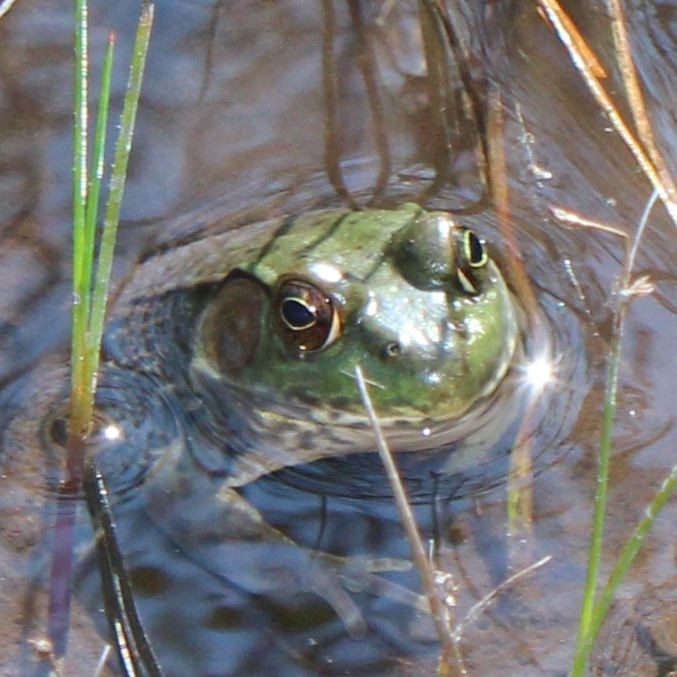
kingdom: Animalia
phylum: Chordata
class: Amphibia
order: Anura
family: Ranidae
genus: Lithobates
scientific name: Lithobates clamitans
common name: Green frog
